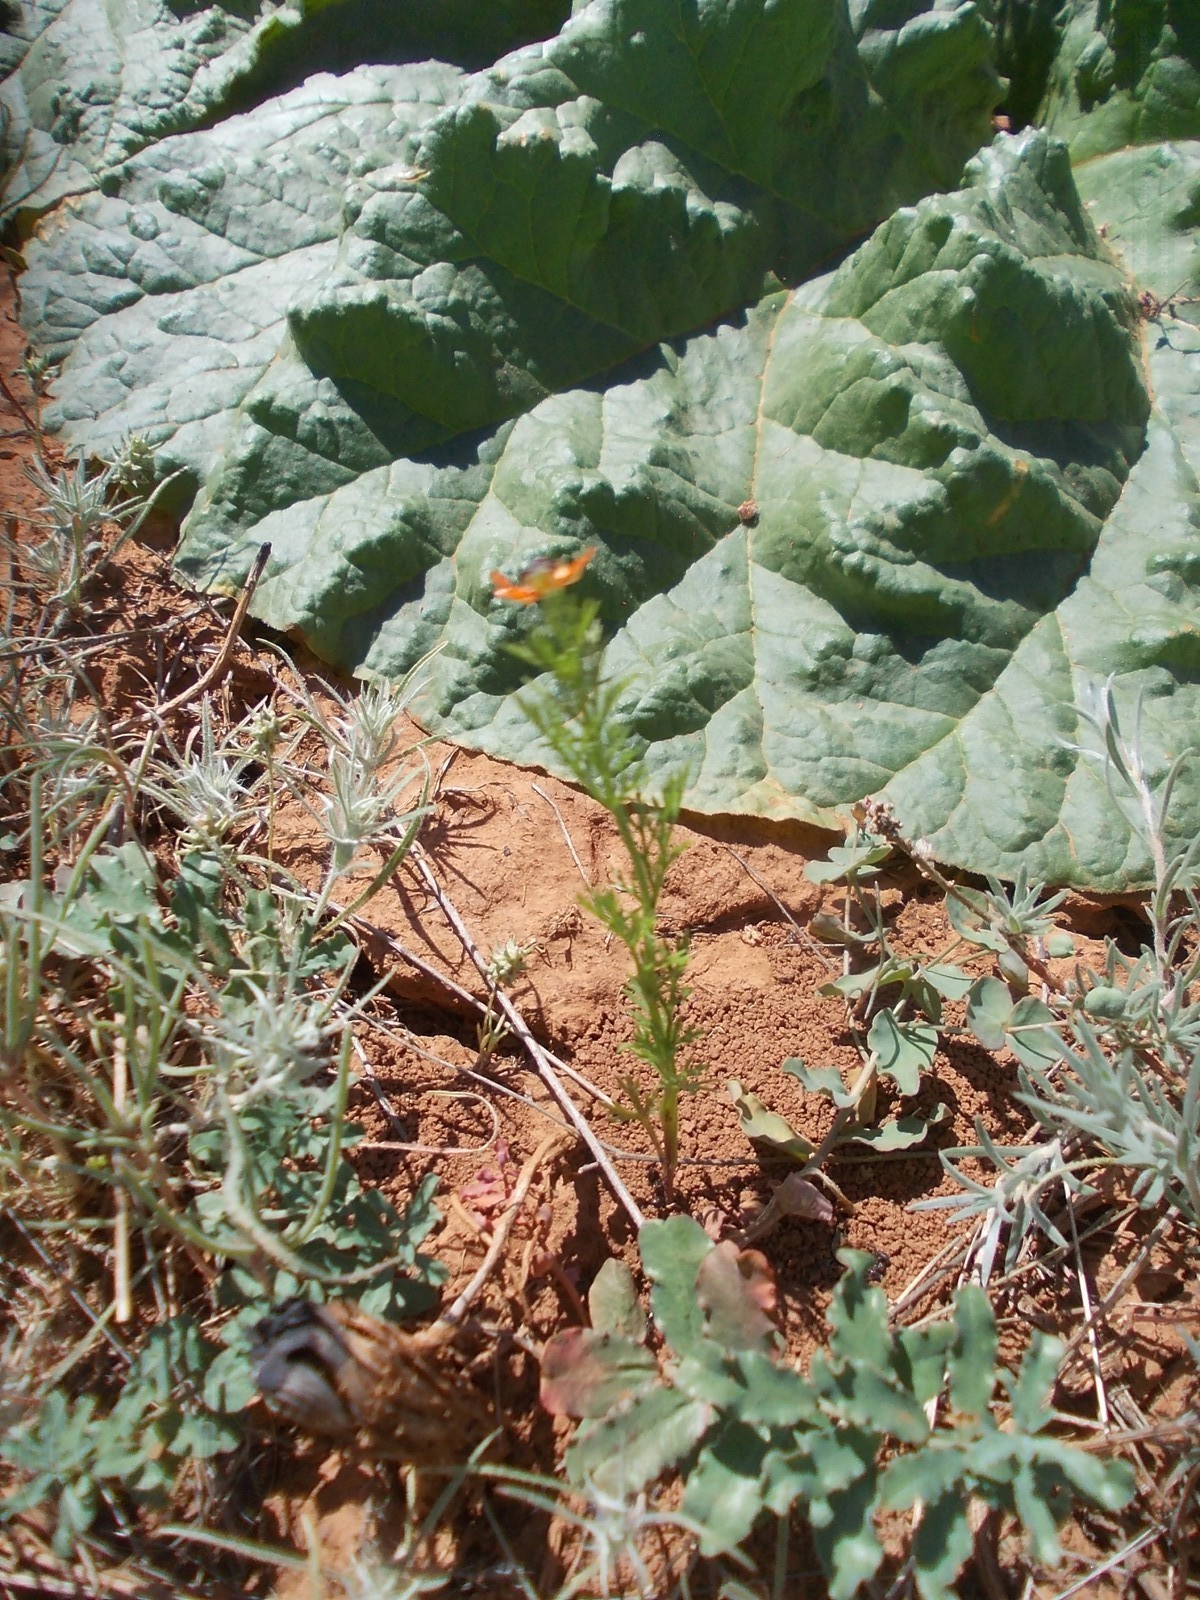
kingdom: Plantae
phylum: Tracheophyta
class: Magnoliopsida
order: Ranunculales
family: Ranunculaceae
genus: Adonis
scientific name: Adonis aestivalis
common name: Summer pheasant's-eye
